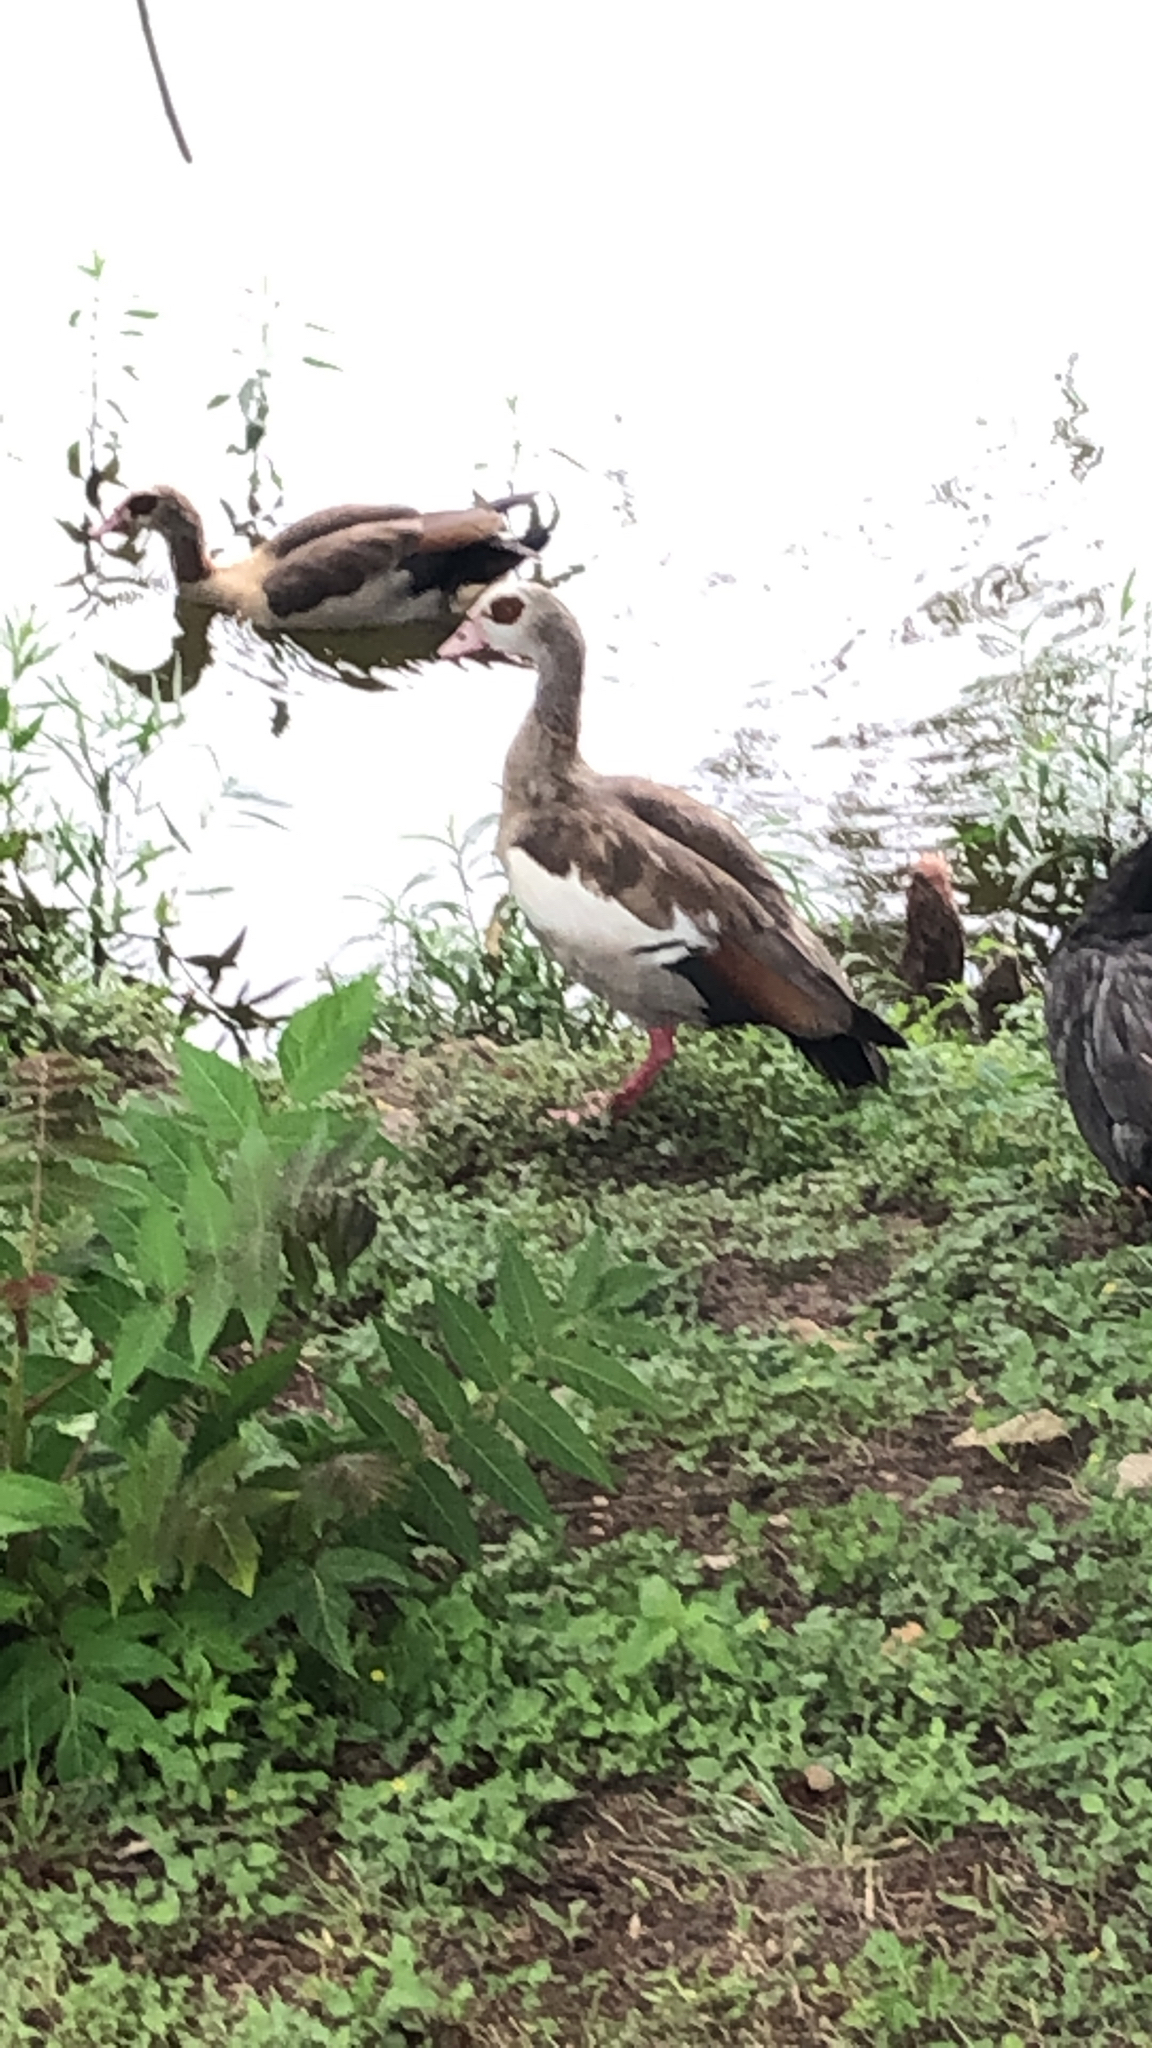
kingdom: Animalia
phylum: Chordata
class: Aves
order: Anseriformes
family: Anatidae
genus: Alopochen
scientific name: Alopochen aegyptiaca
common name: Egyptian goose
